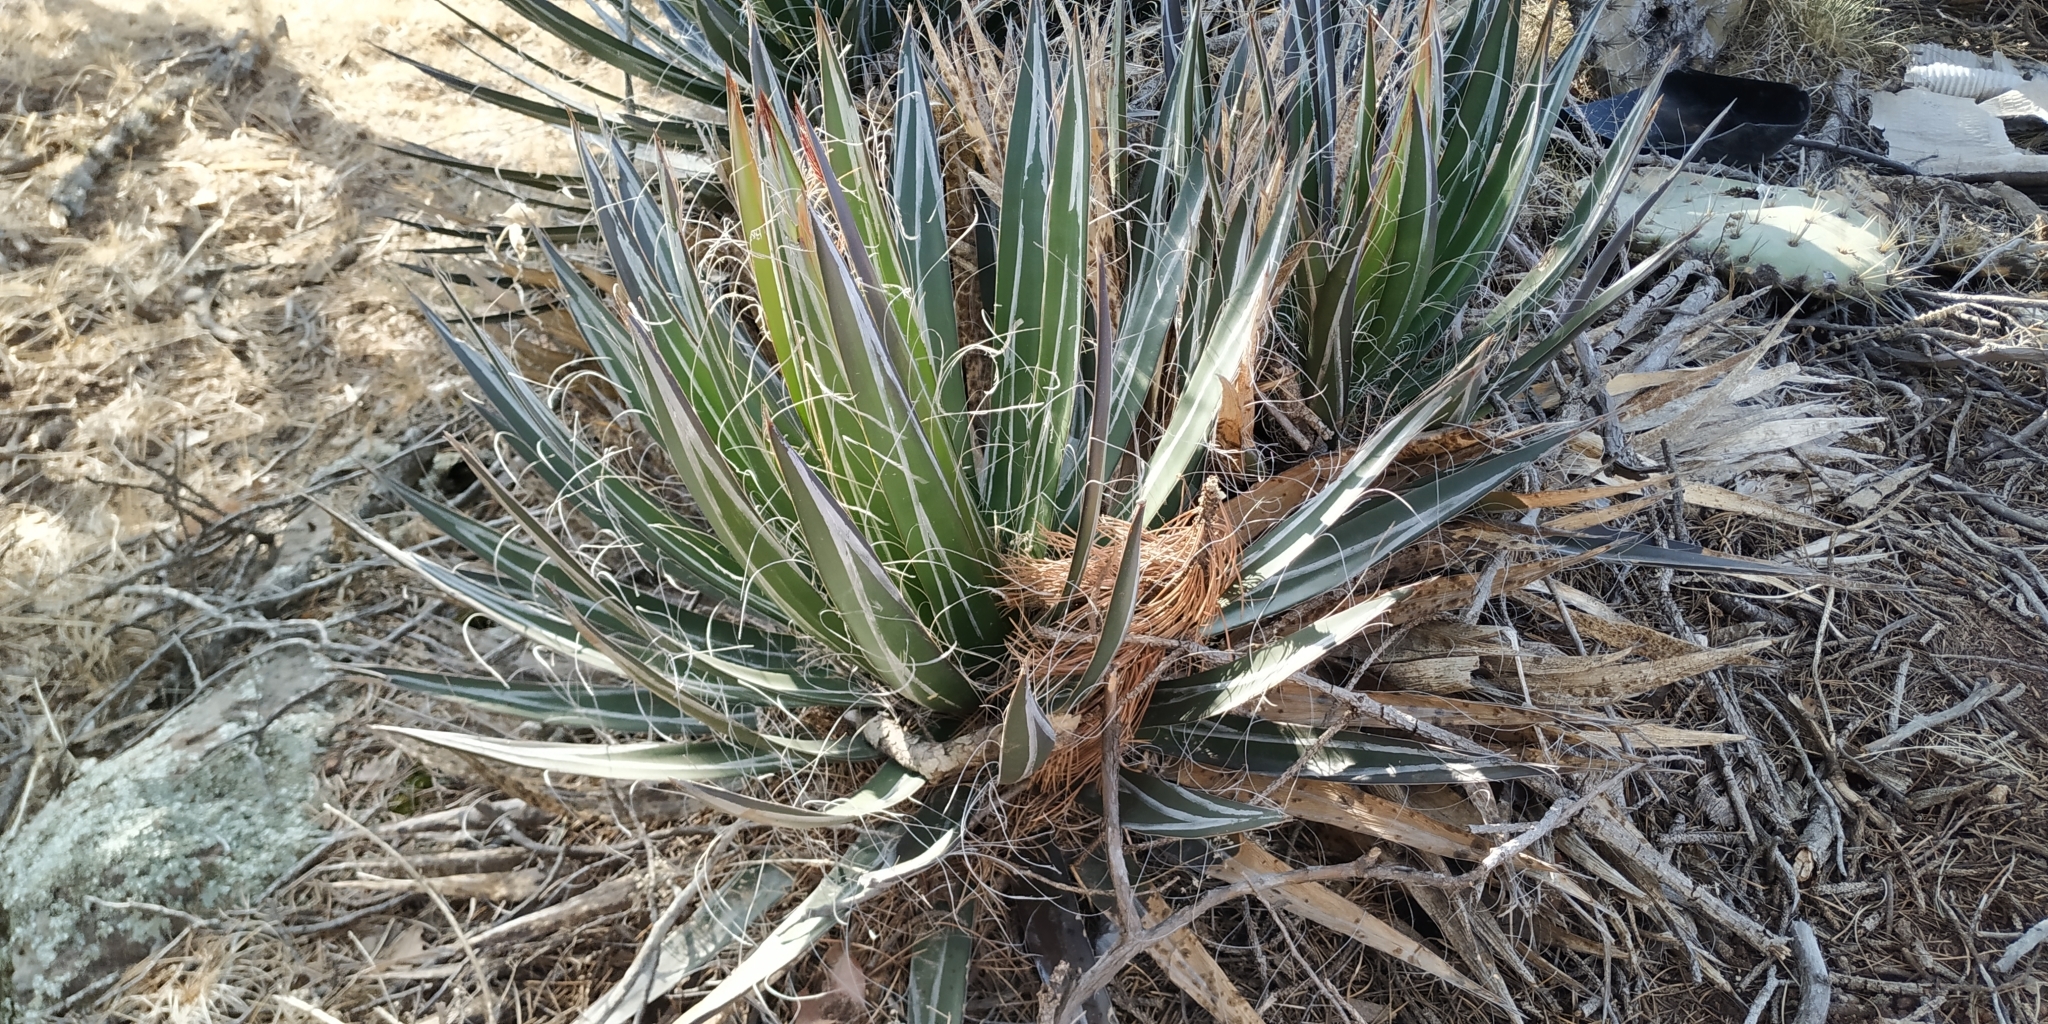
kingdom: Plantae
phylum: Tracheophyta
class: Liliopsida
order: Asparagales
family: Asparagaceae
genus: Agave
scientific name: Agave schidigera
